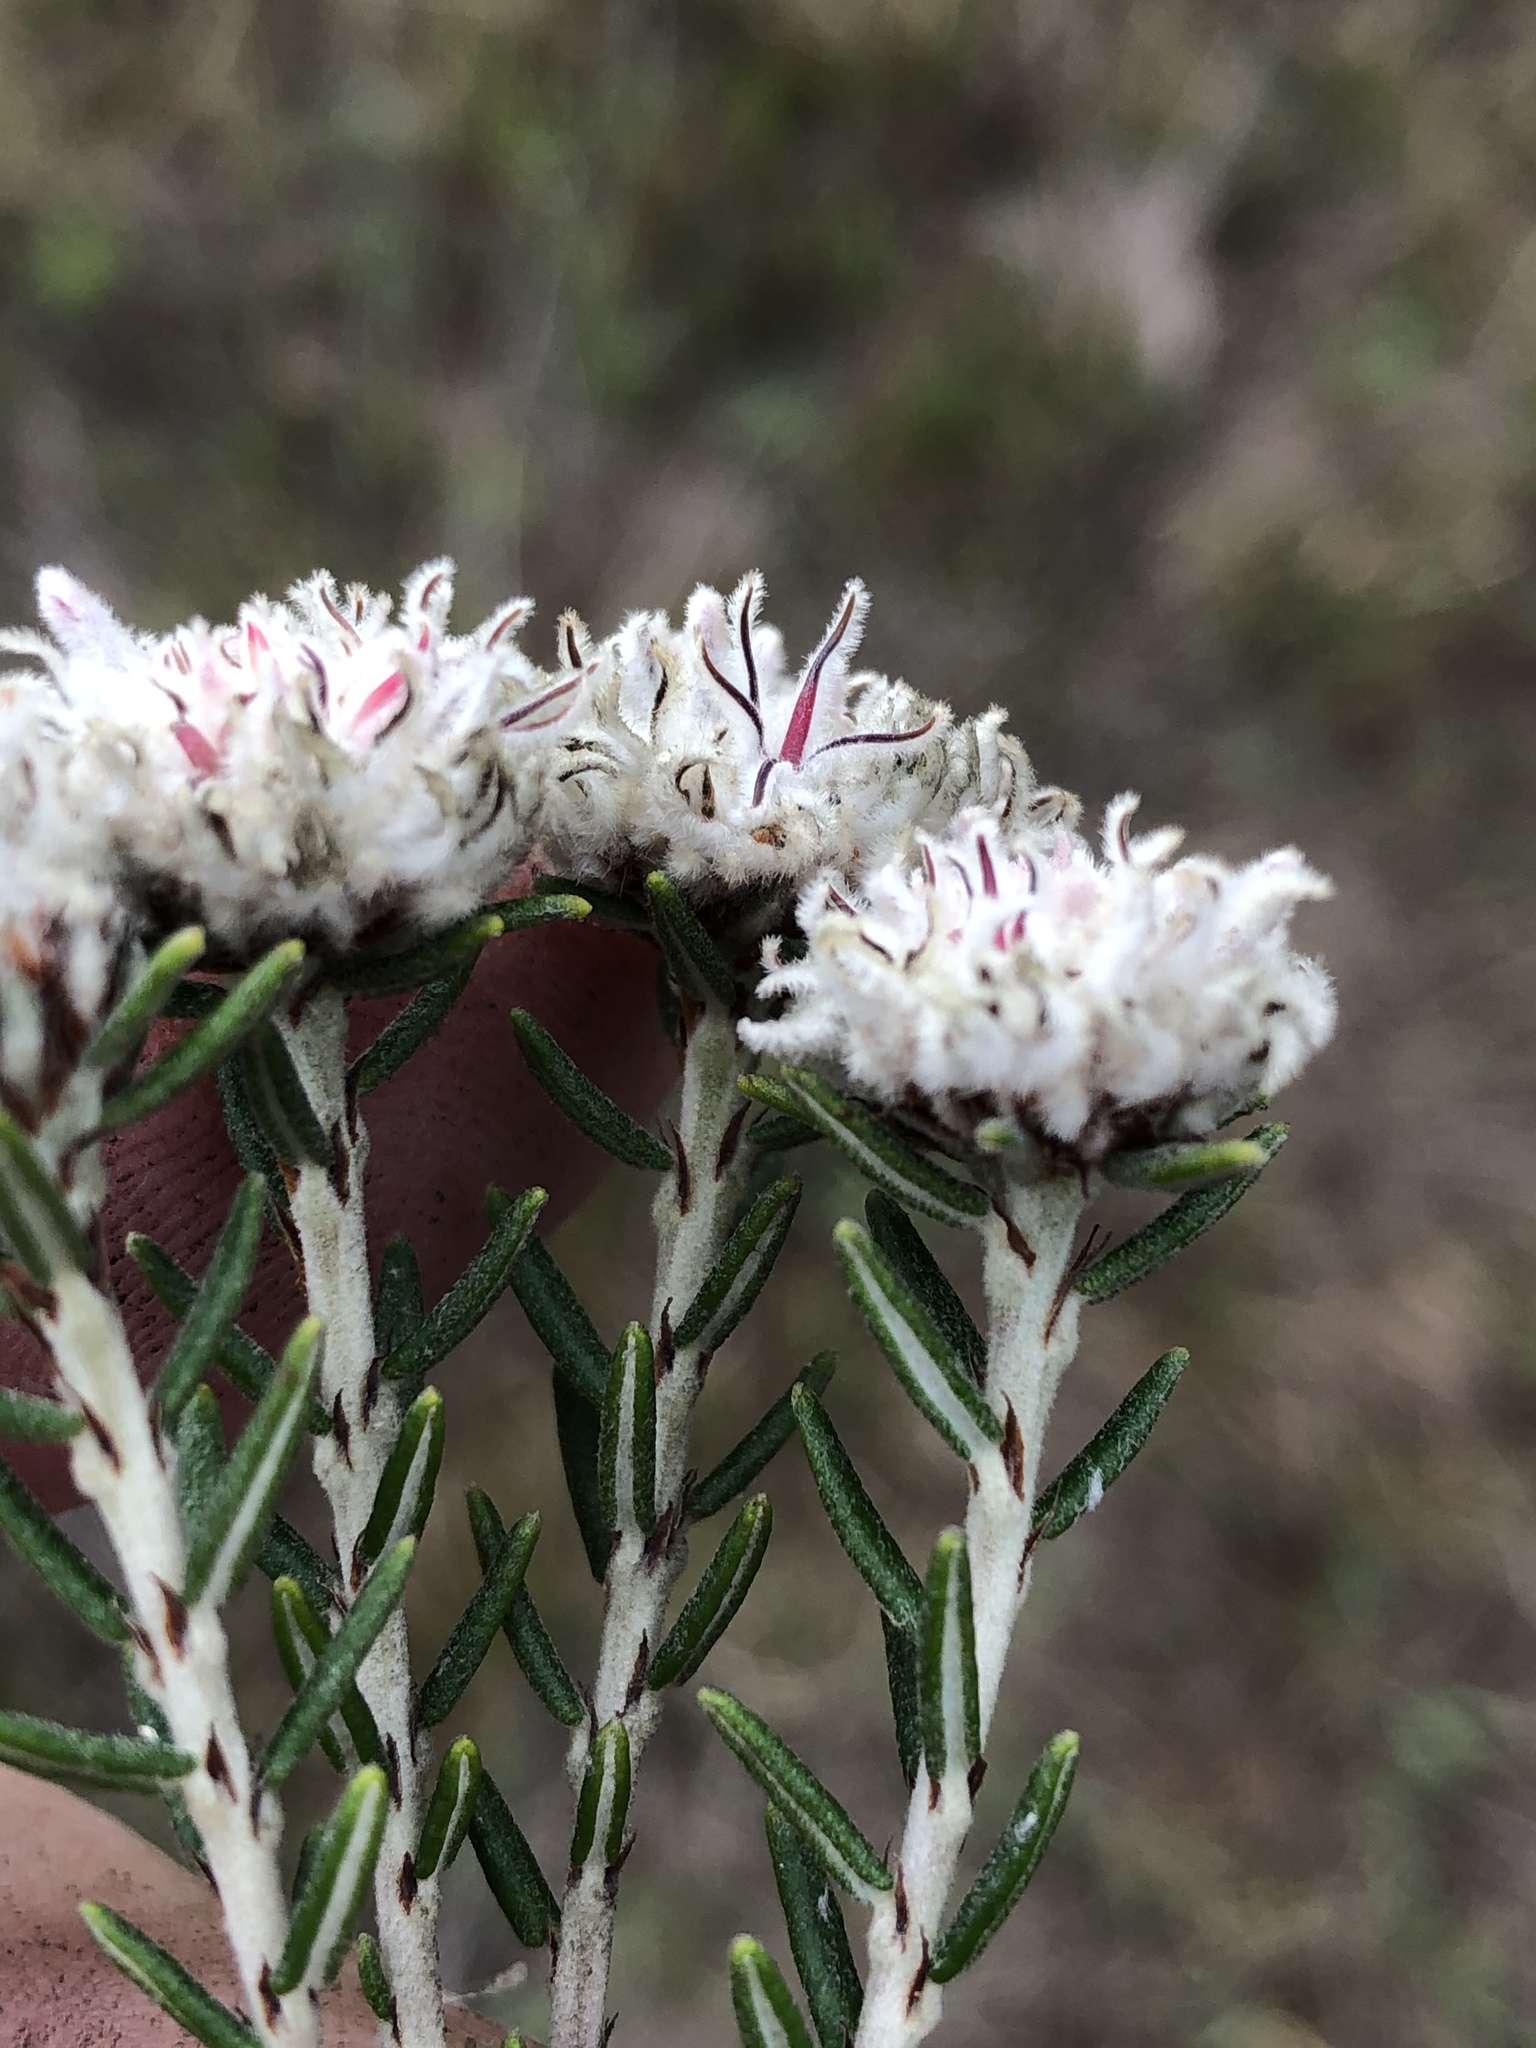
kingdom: Plantae
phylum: Tracheophyta
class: Magnoliopsida
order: Rosales
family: Rhamnaceae
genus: Trichocephalus
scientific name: Trichocephalus stipularis
